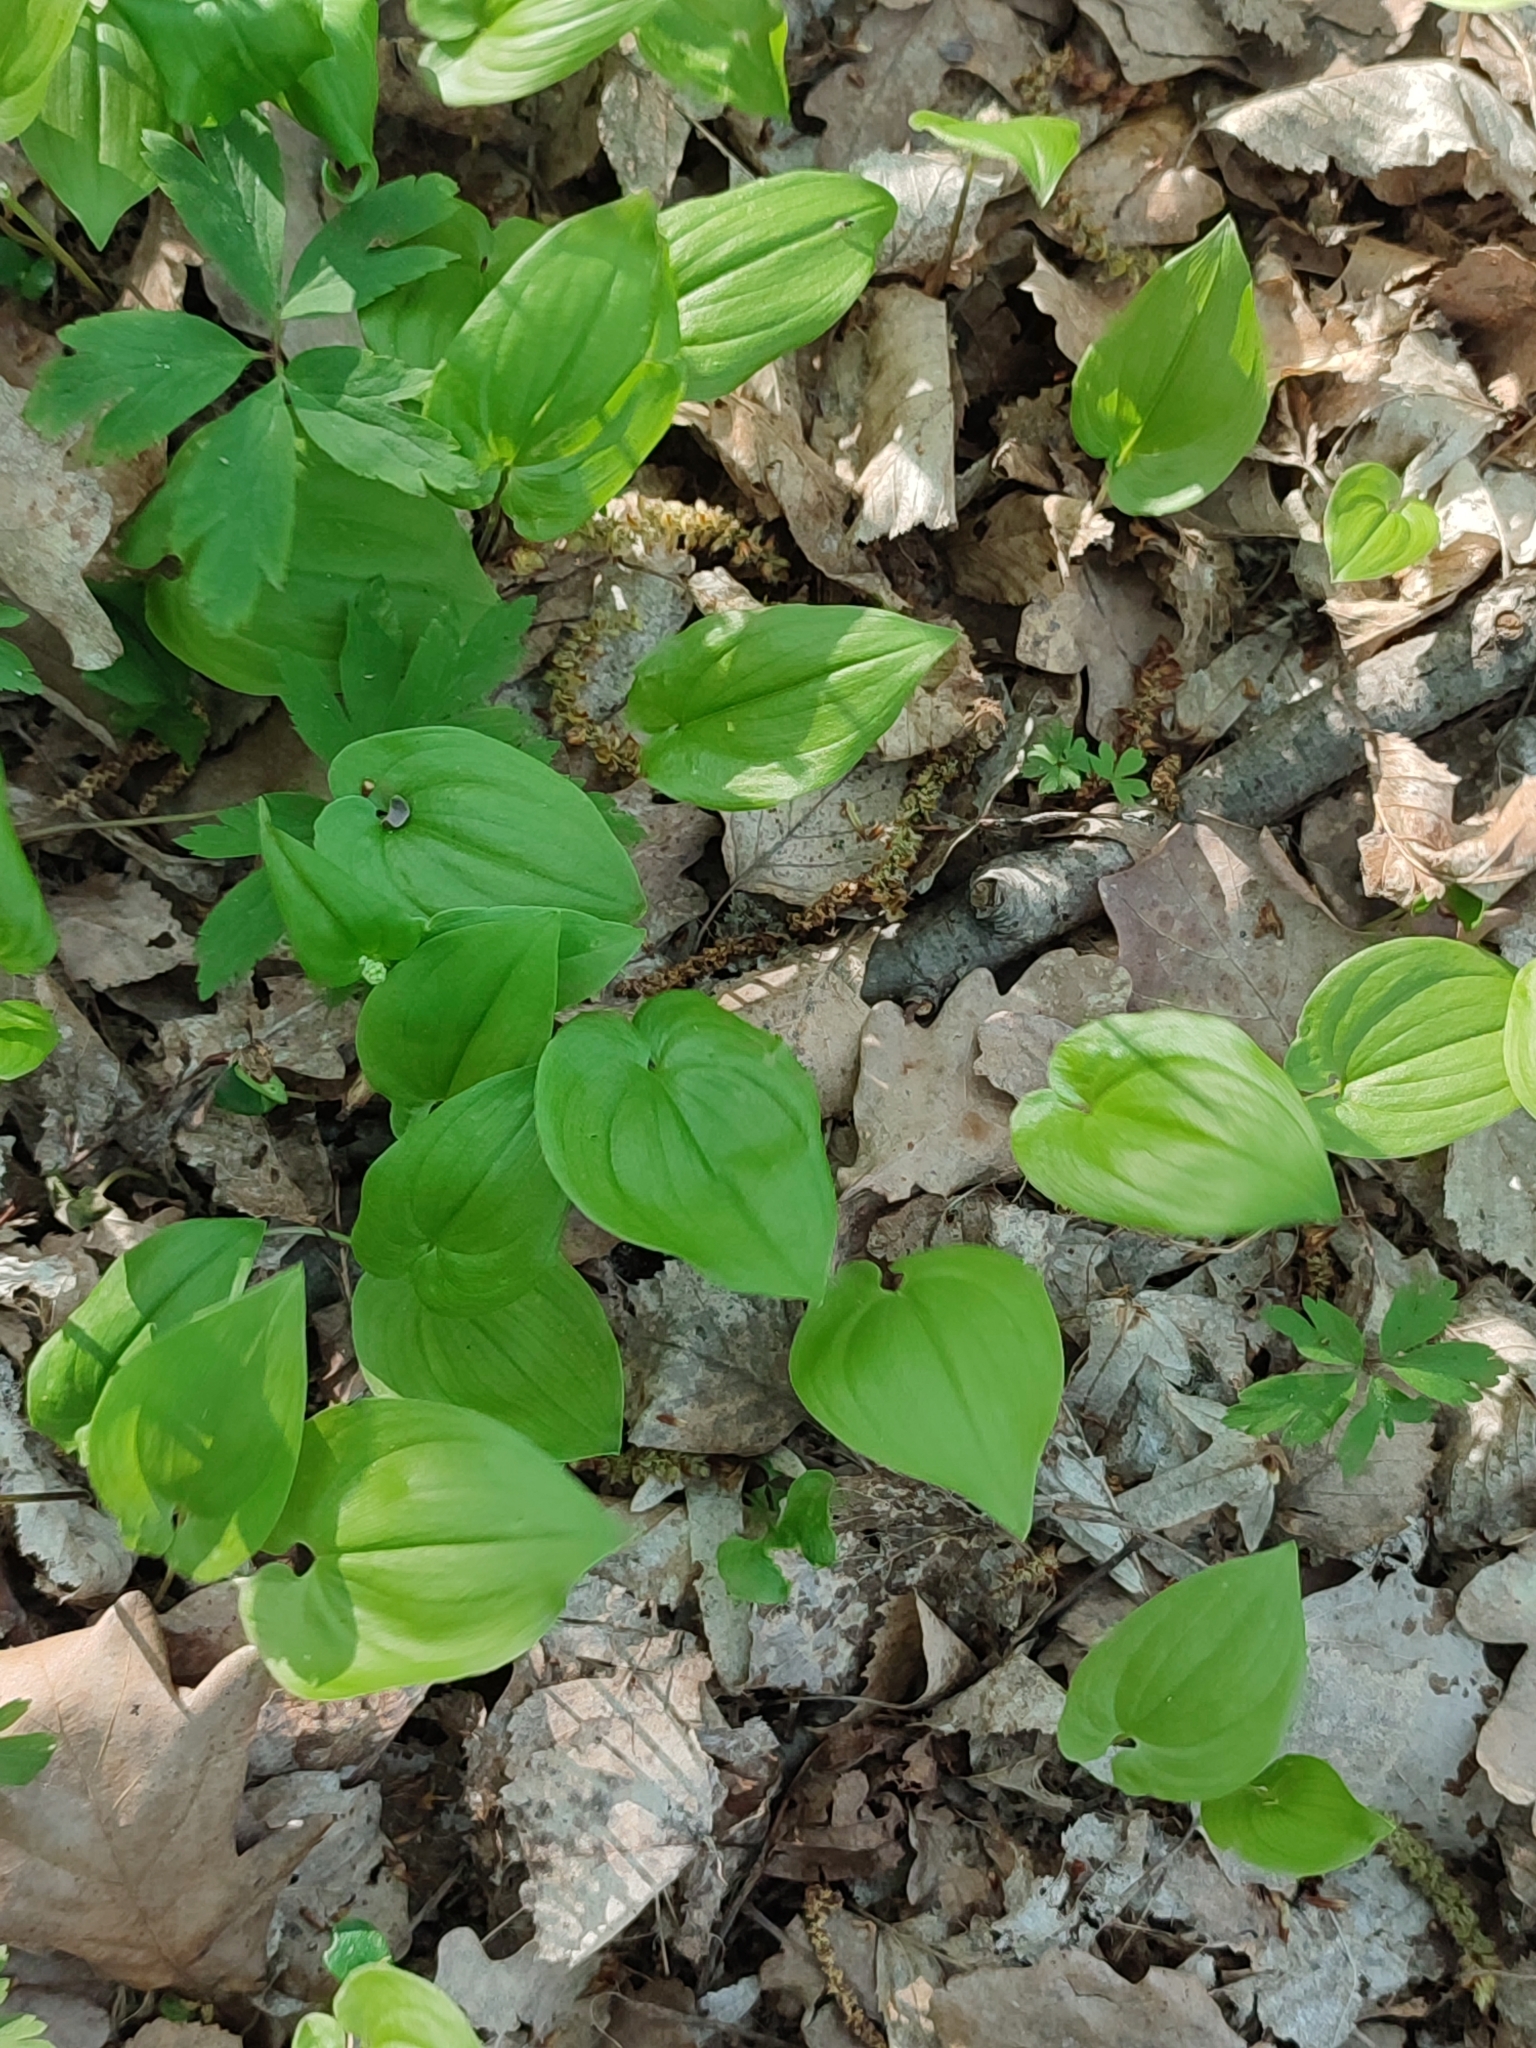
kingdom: Plantae
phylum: Tracheophyta
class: Liliopsida
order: Asparagales
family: Asparagaceae
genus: Maianthemum
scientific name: Maianthemum bifolium
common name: May lily
